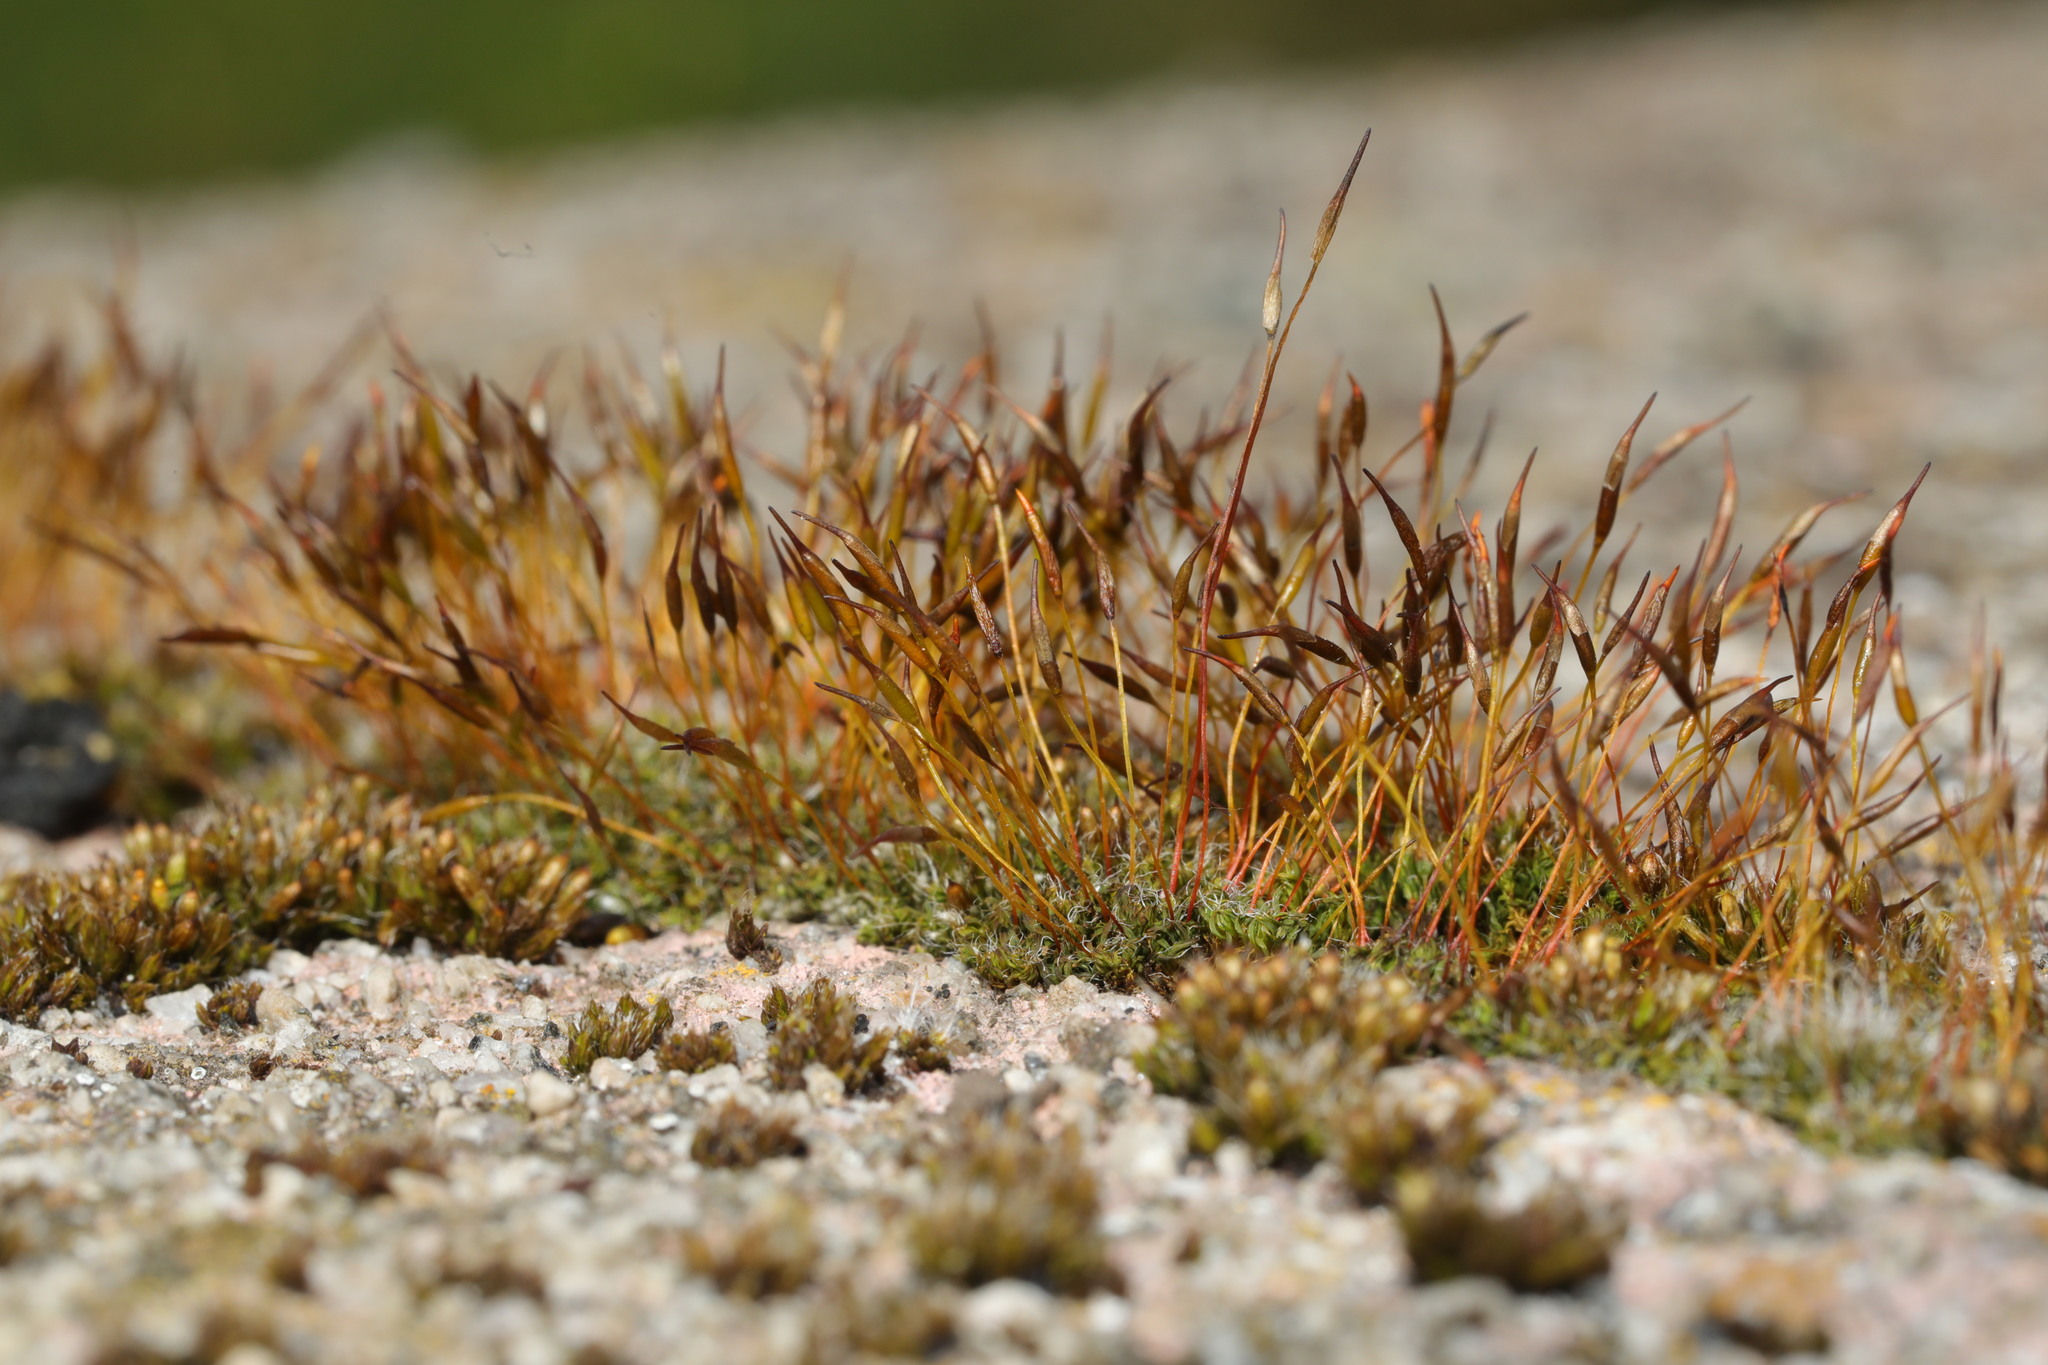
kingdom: Plantae
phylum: Bryophyta
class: Bryopsida
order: Pottiales
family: Pottiaceae
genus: Tortula
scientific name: Tortula muralis
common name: Wall screw-moss
